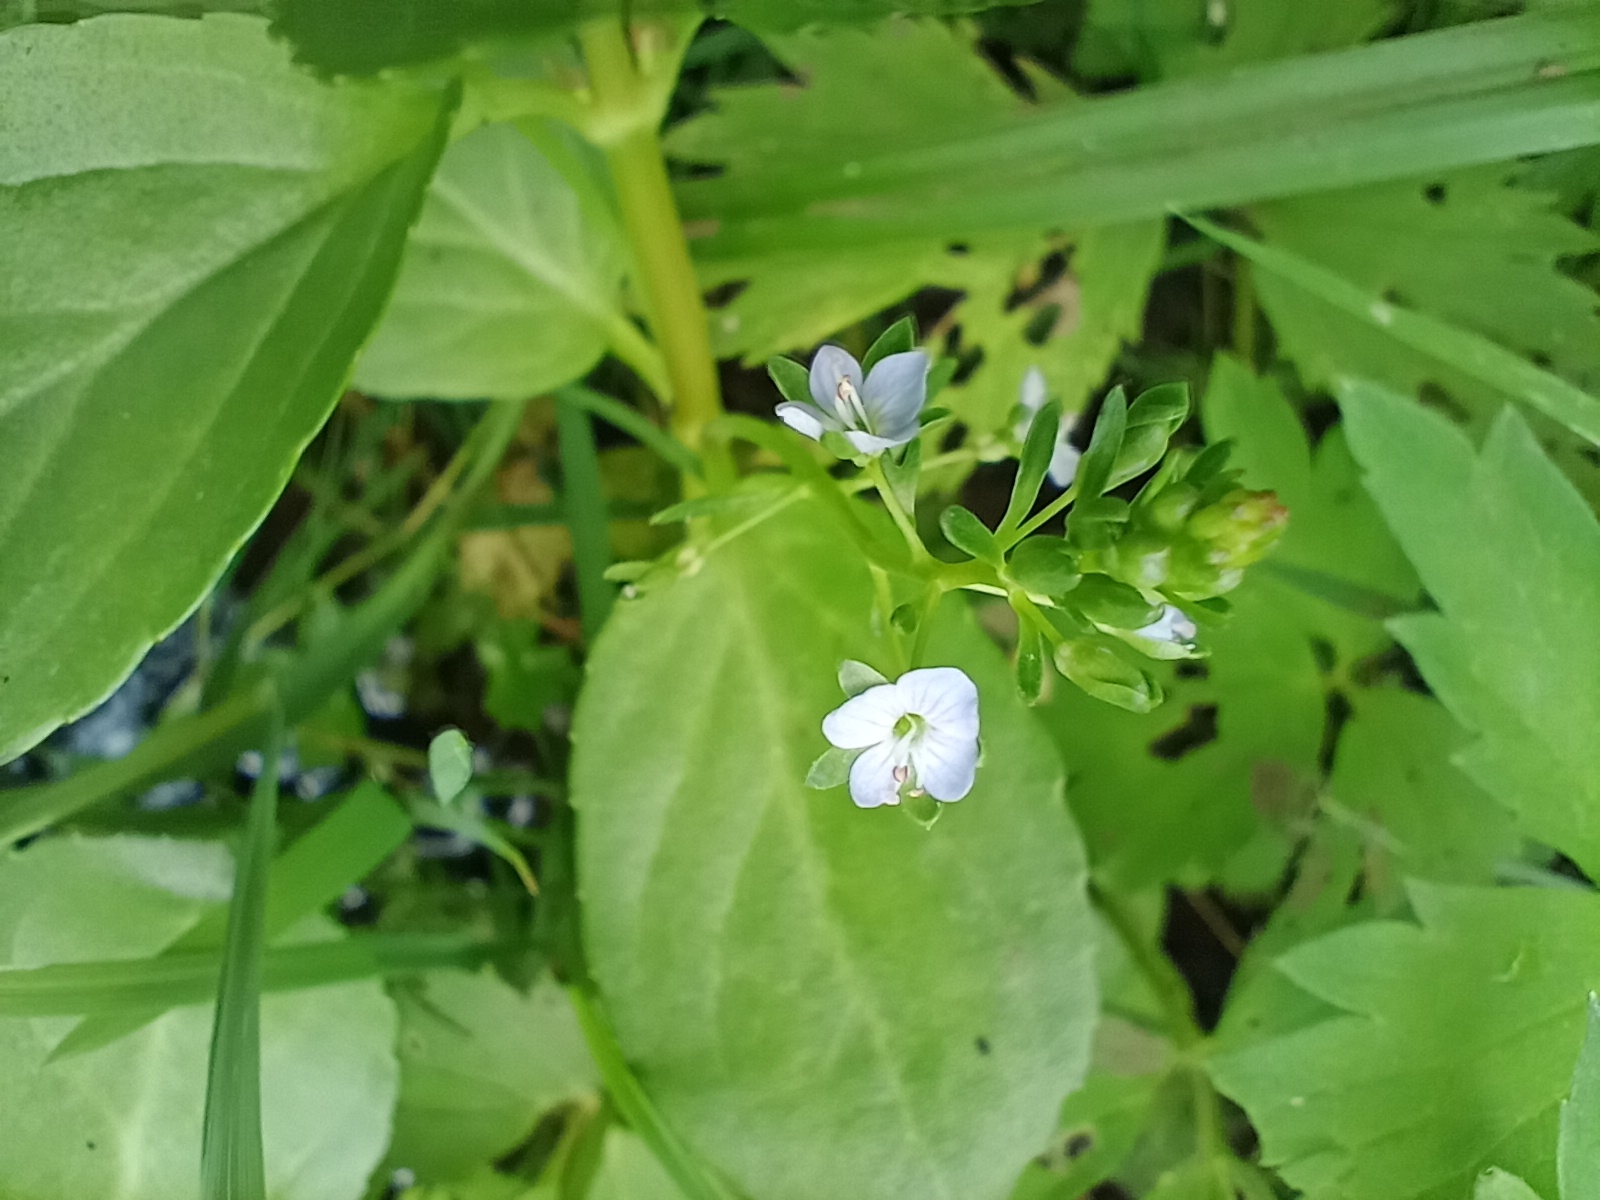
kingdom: Plantae
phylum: Tracheophyta
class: Magnoliopsida
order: Lamiales
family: Plantaginaceae
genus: Veronica
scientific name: Veronica beccabunga
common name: Brooklime
